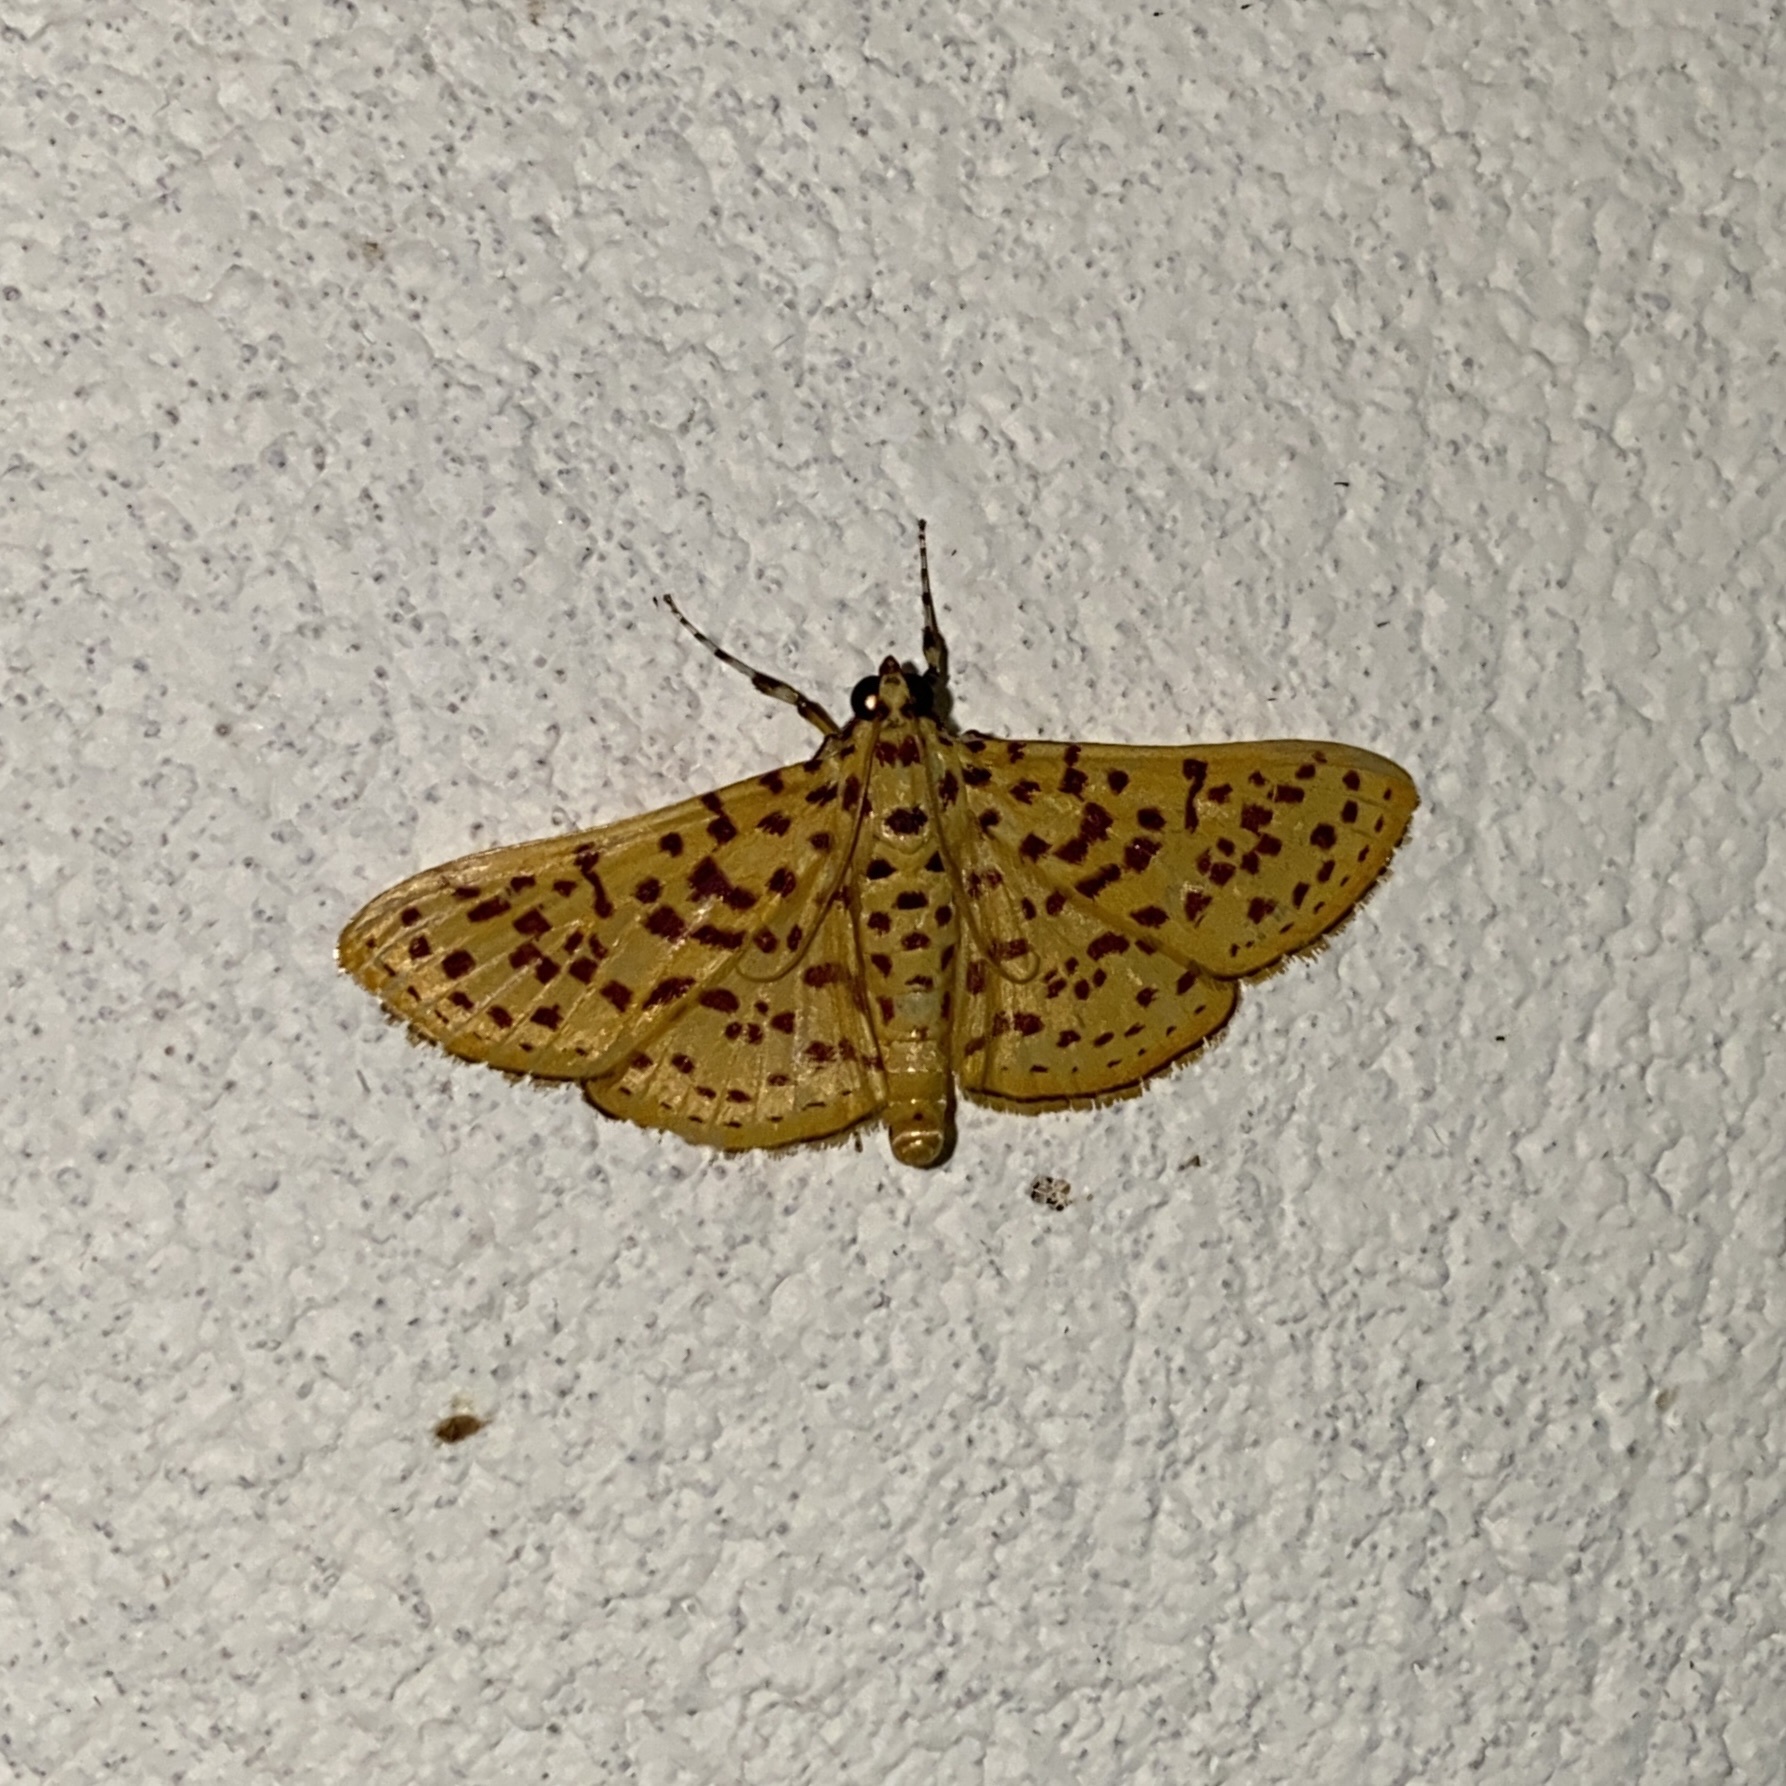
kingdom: Animalia
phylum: Arthropoda
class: Insecta
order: Lepidoptera
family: Crambidae
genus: Polygrammodes
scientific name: Polygrammodes elevata
